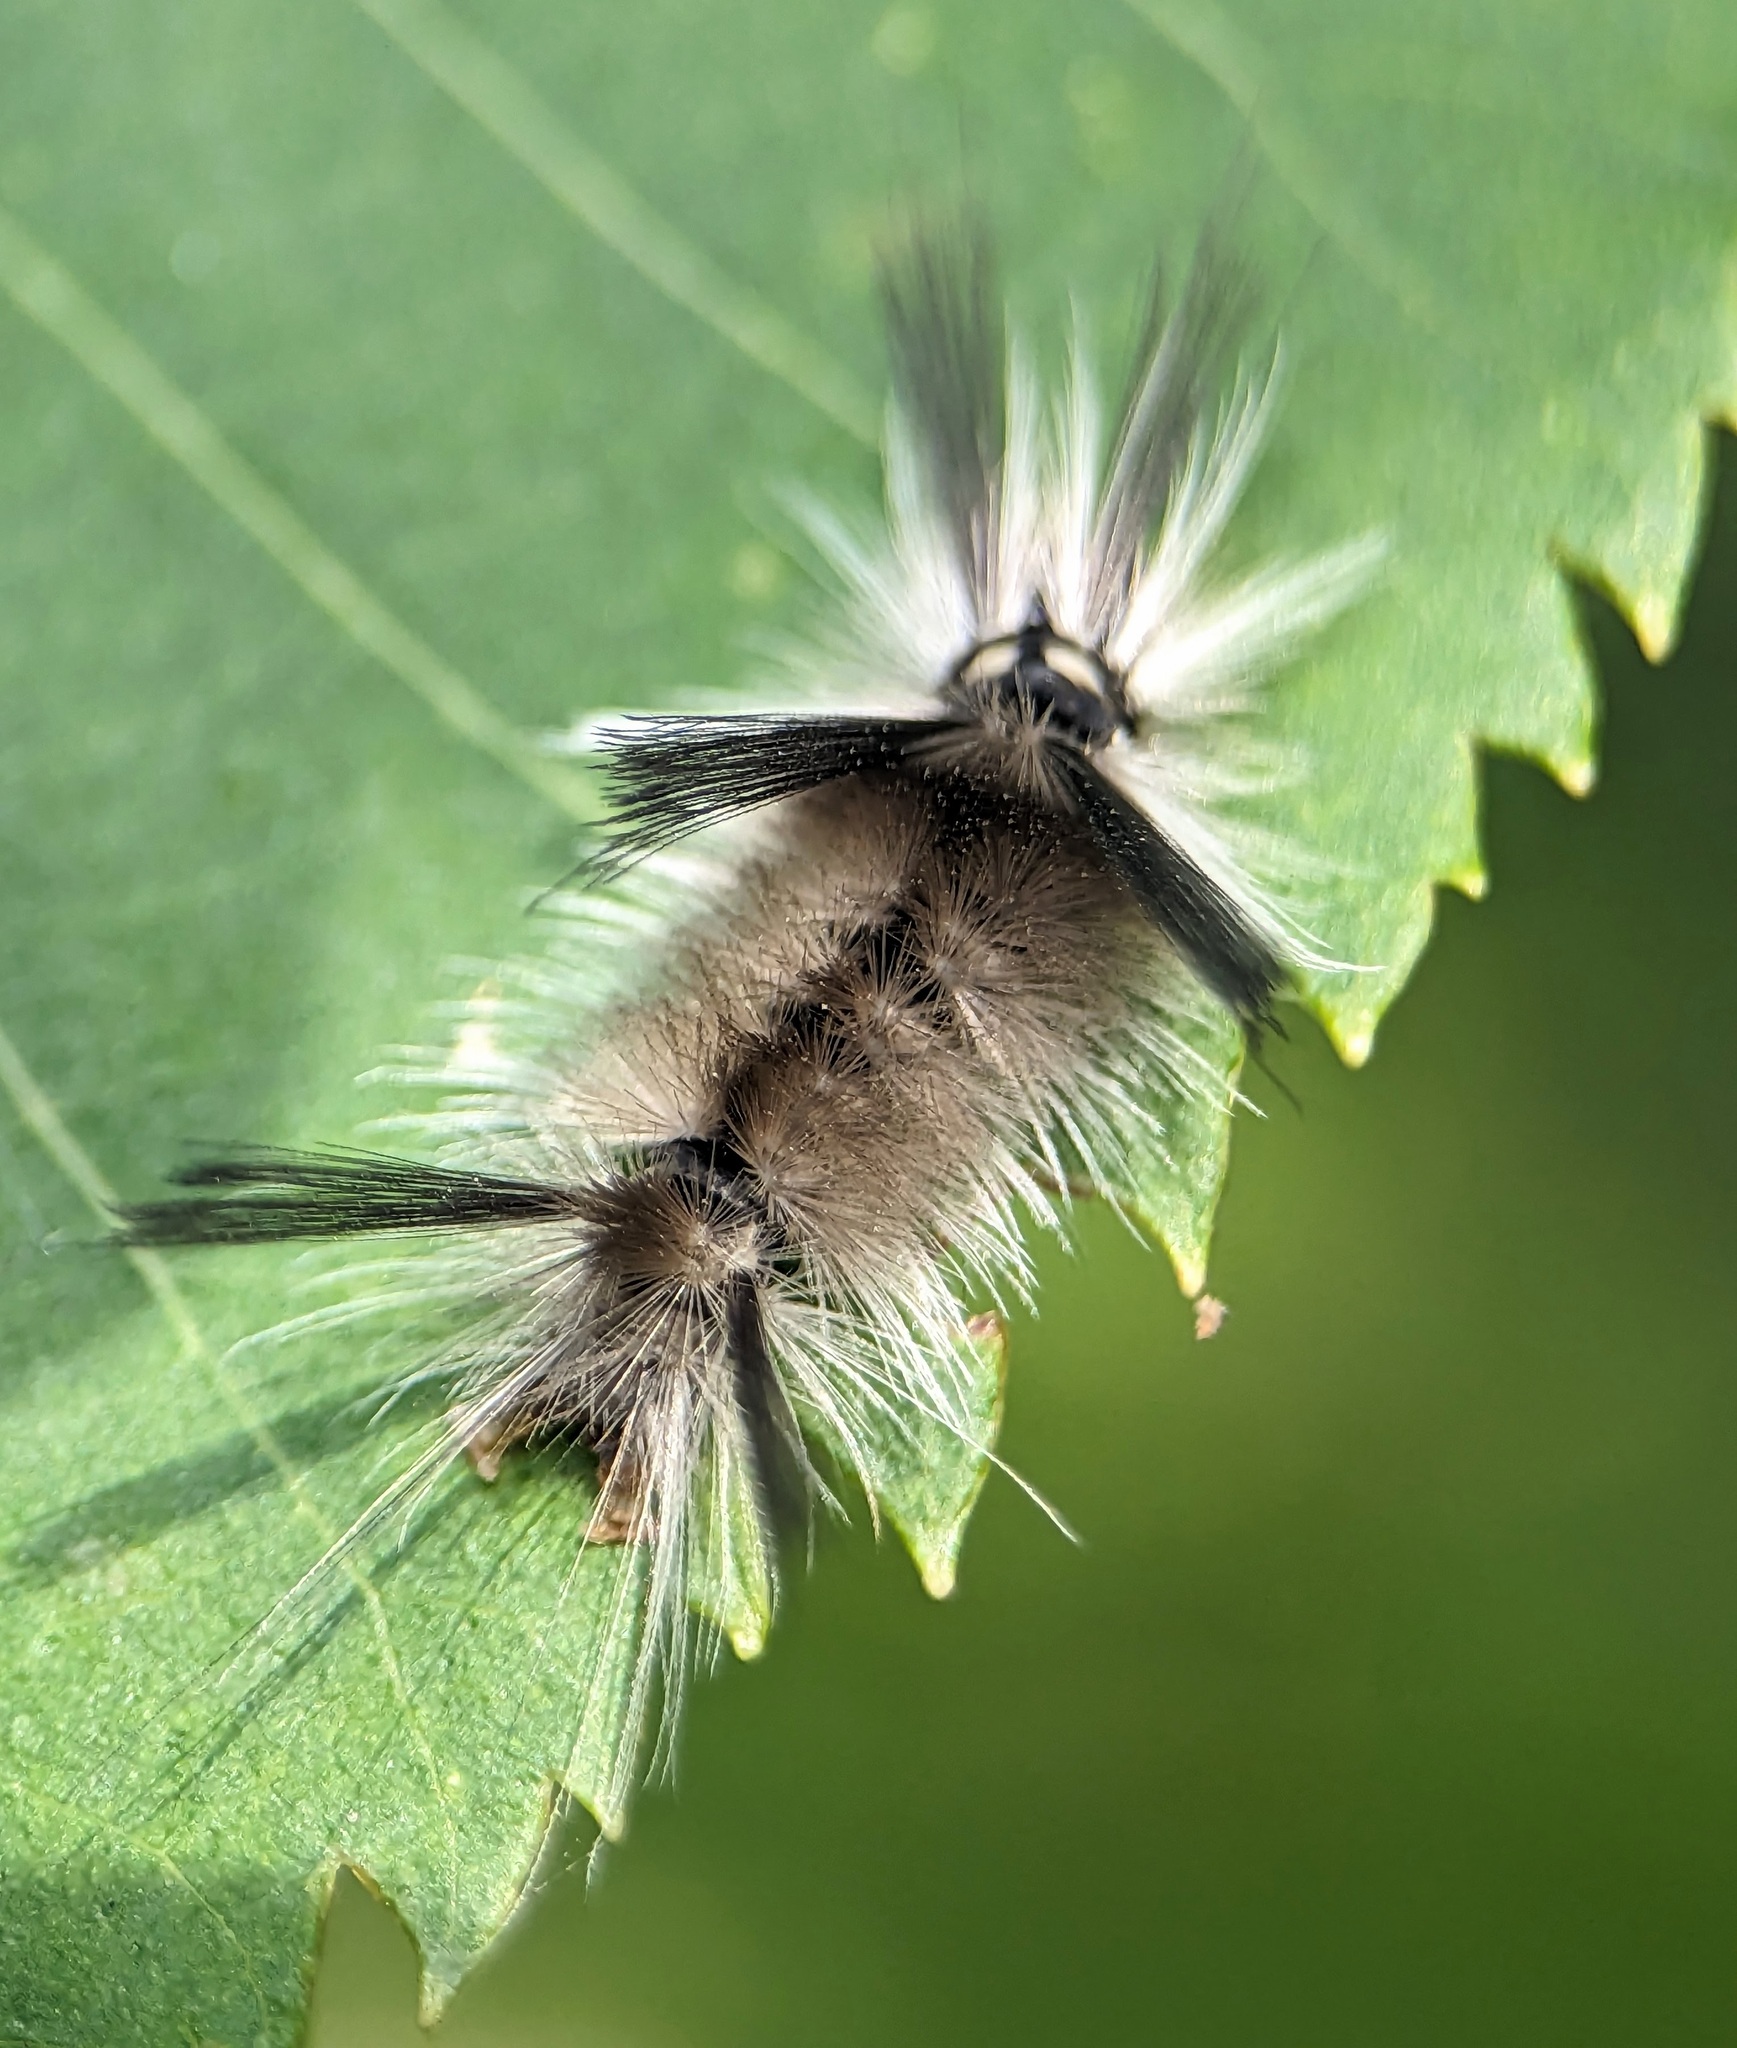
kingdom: Animalia
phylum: Arthropoda
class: Insecta
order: Lepidoptera
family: Erebidae
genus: Halysidota
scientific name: Halysidota tessellaris
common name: Banded tussock moth
